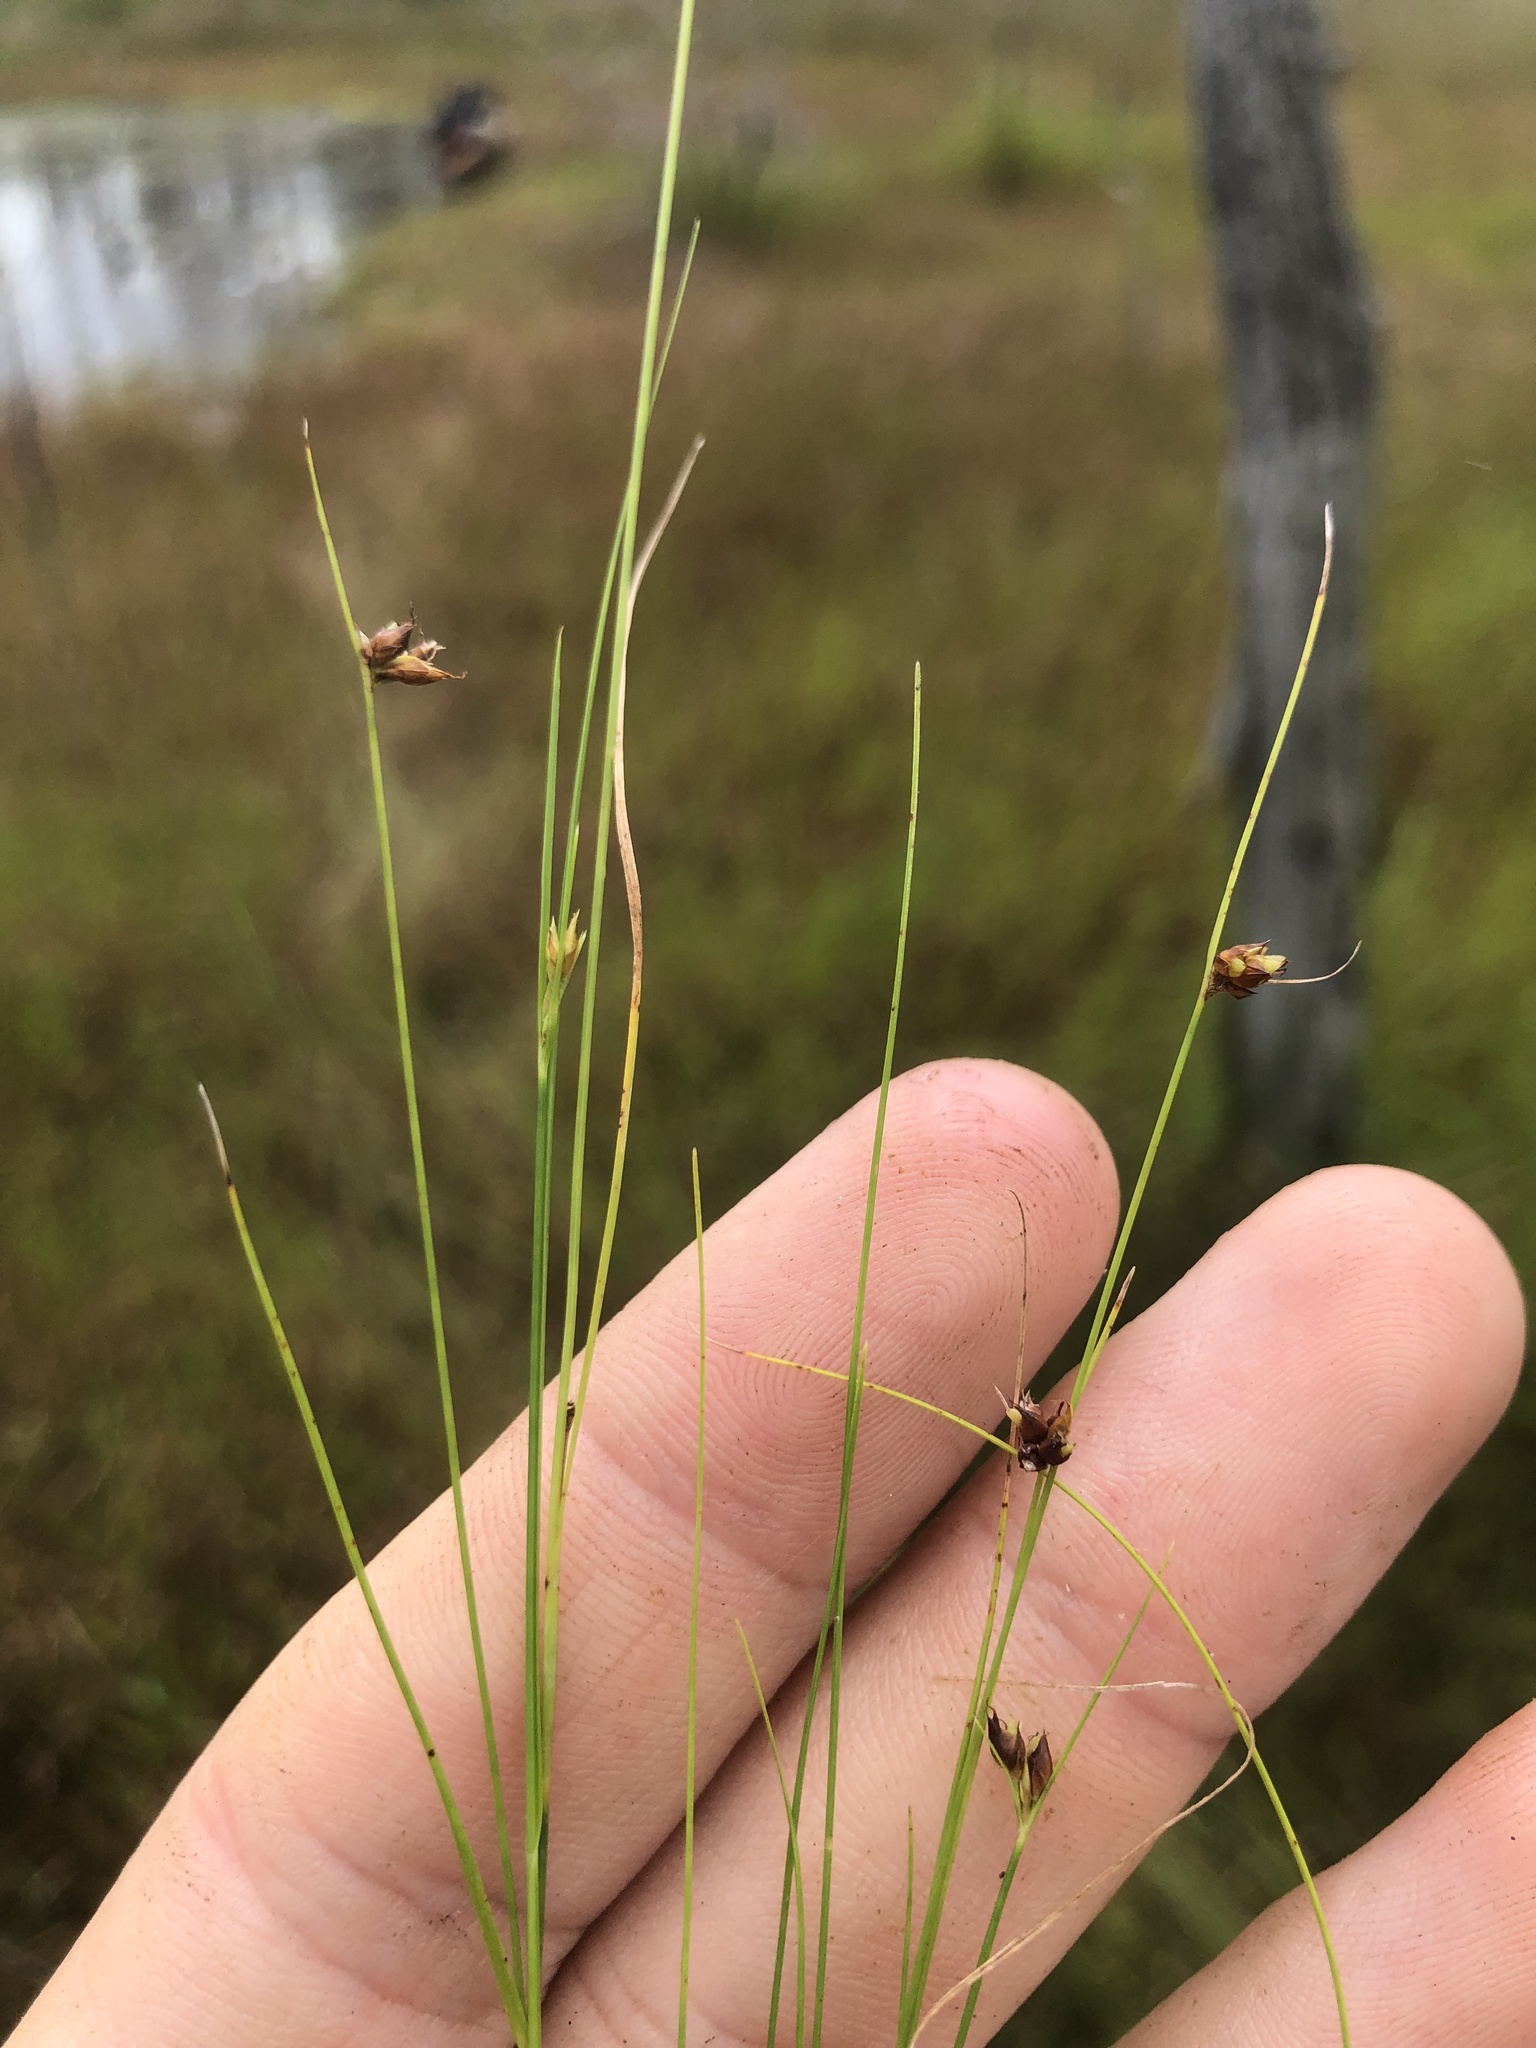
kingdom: Plantae
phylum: Tracheophyta
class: Liliopsida
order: Poales
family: Cyperaceae
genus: Rhynchospora
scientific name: Rhynchospora wrightiana
